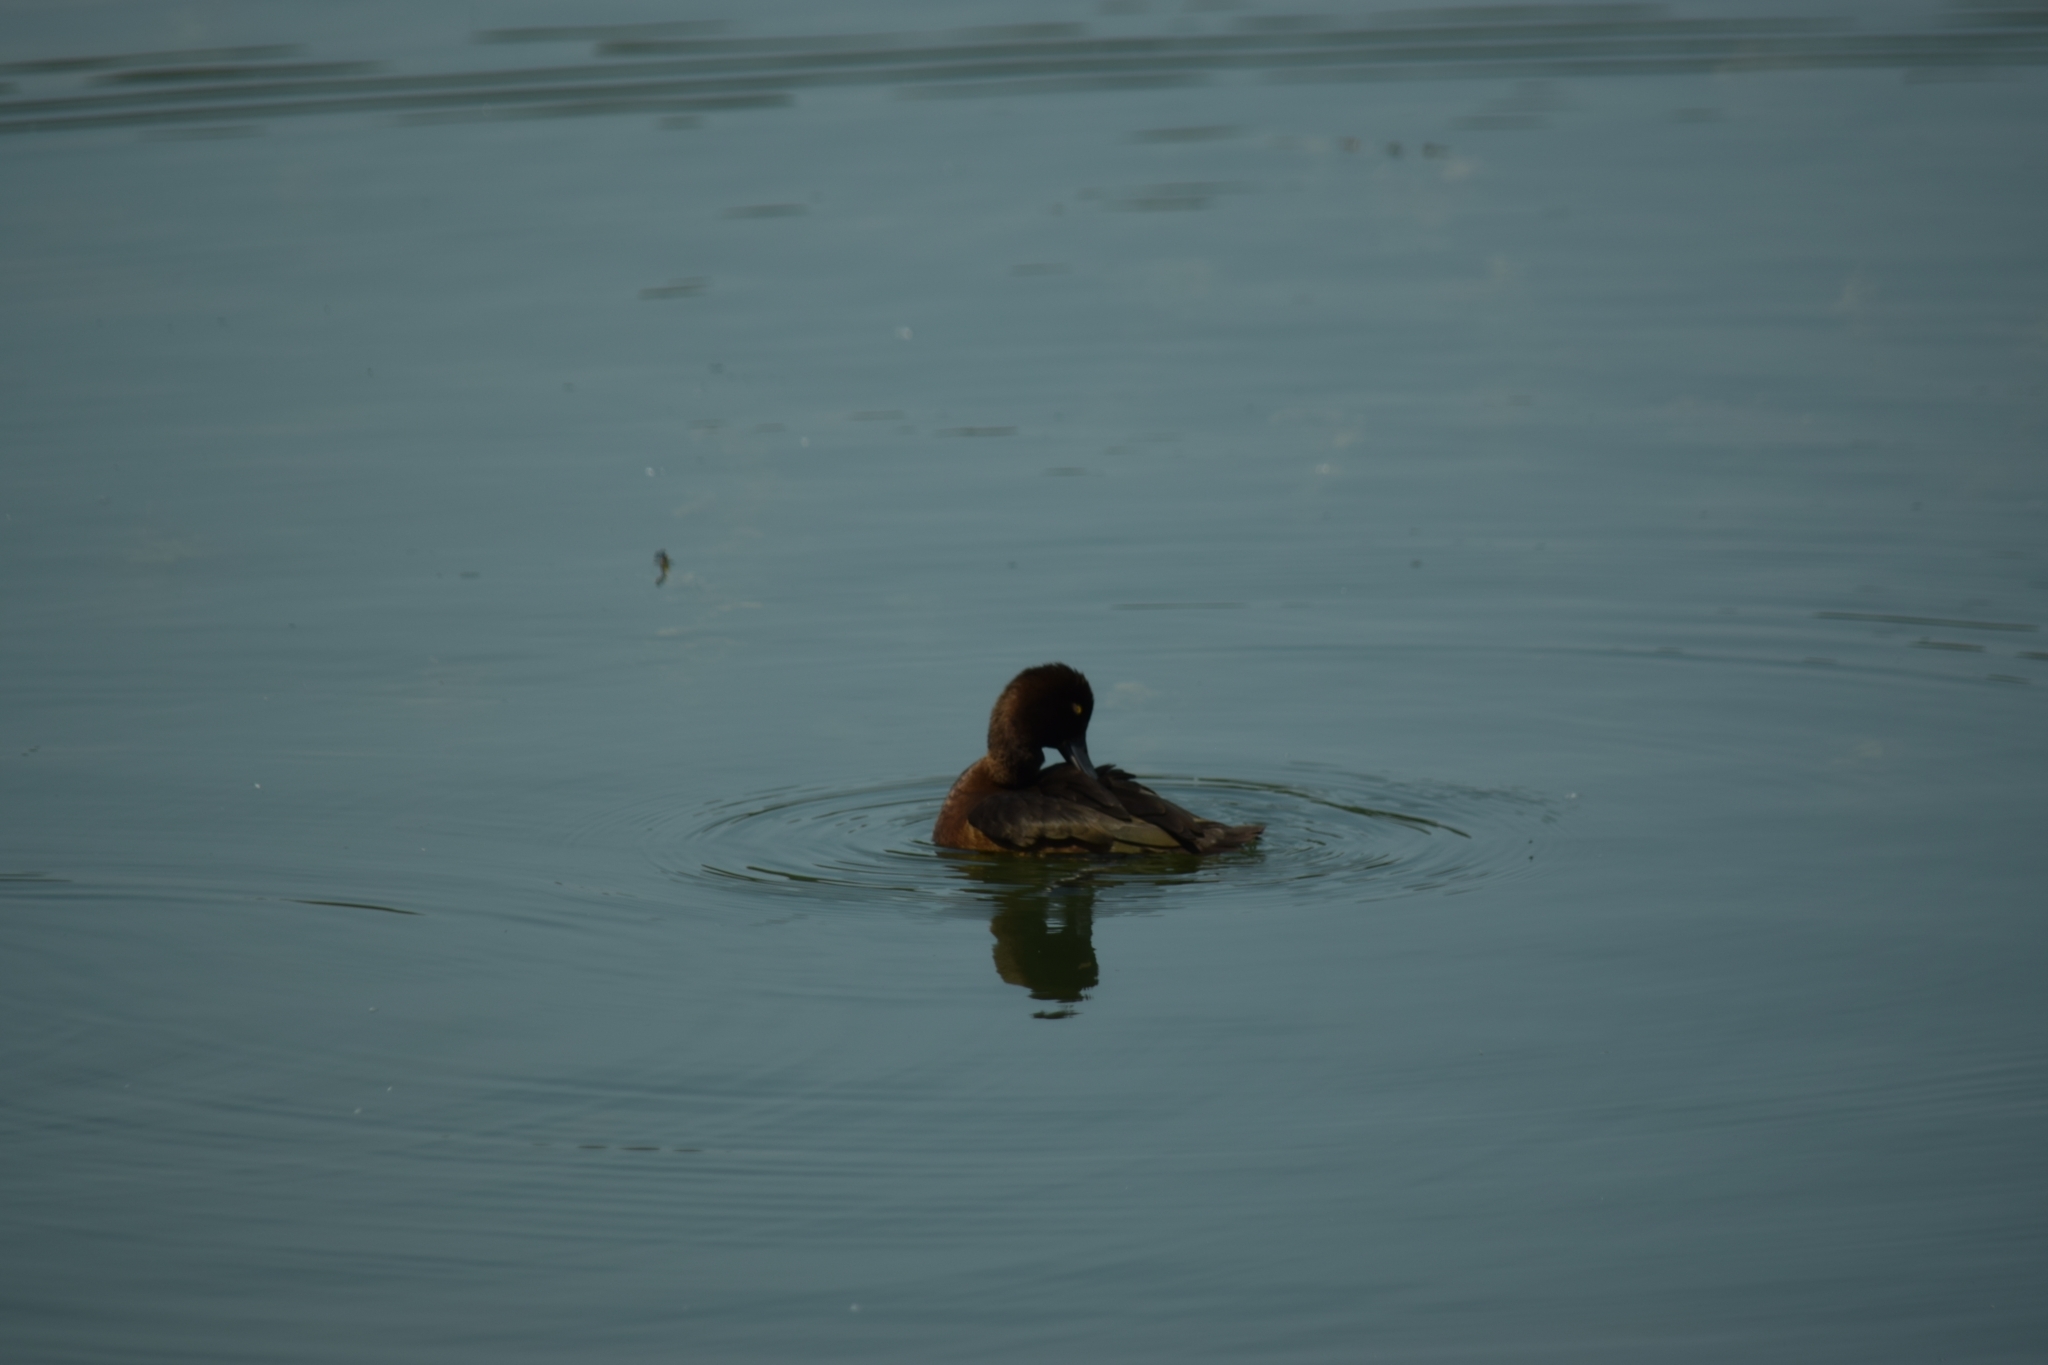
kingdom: Animalia
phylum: Chordata
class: Aves
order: Anseriformes
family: Anatidae
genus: Aythya
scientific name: Aythya fuligula
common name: Tufted duck
